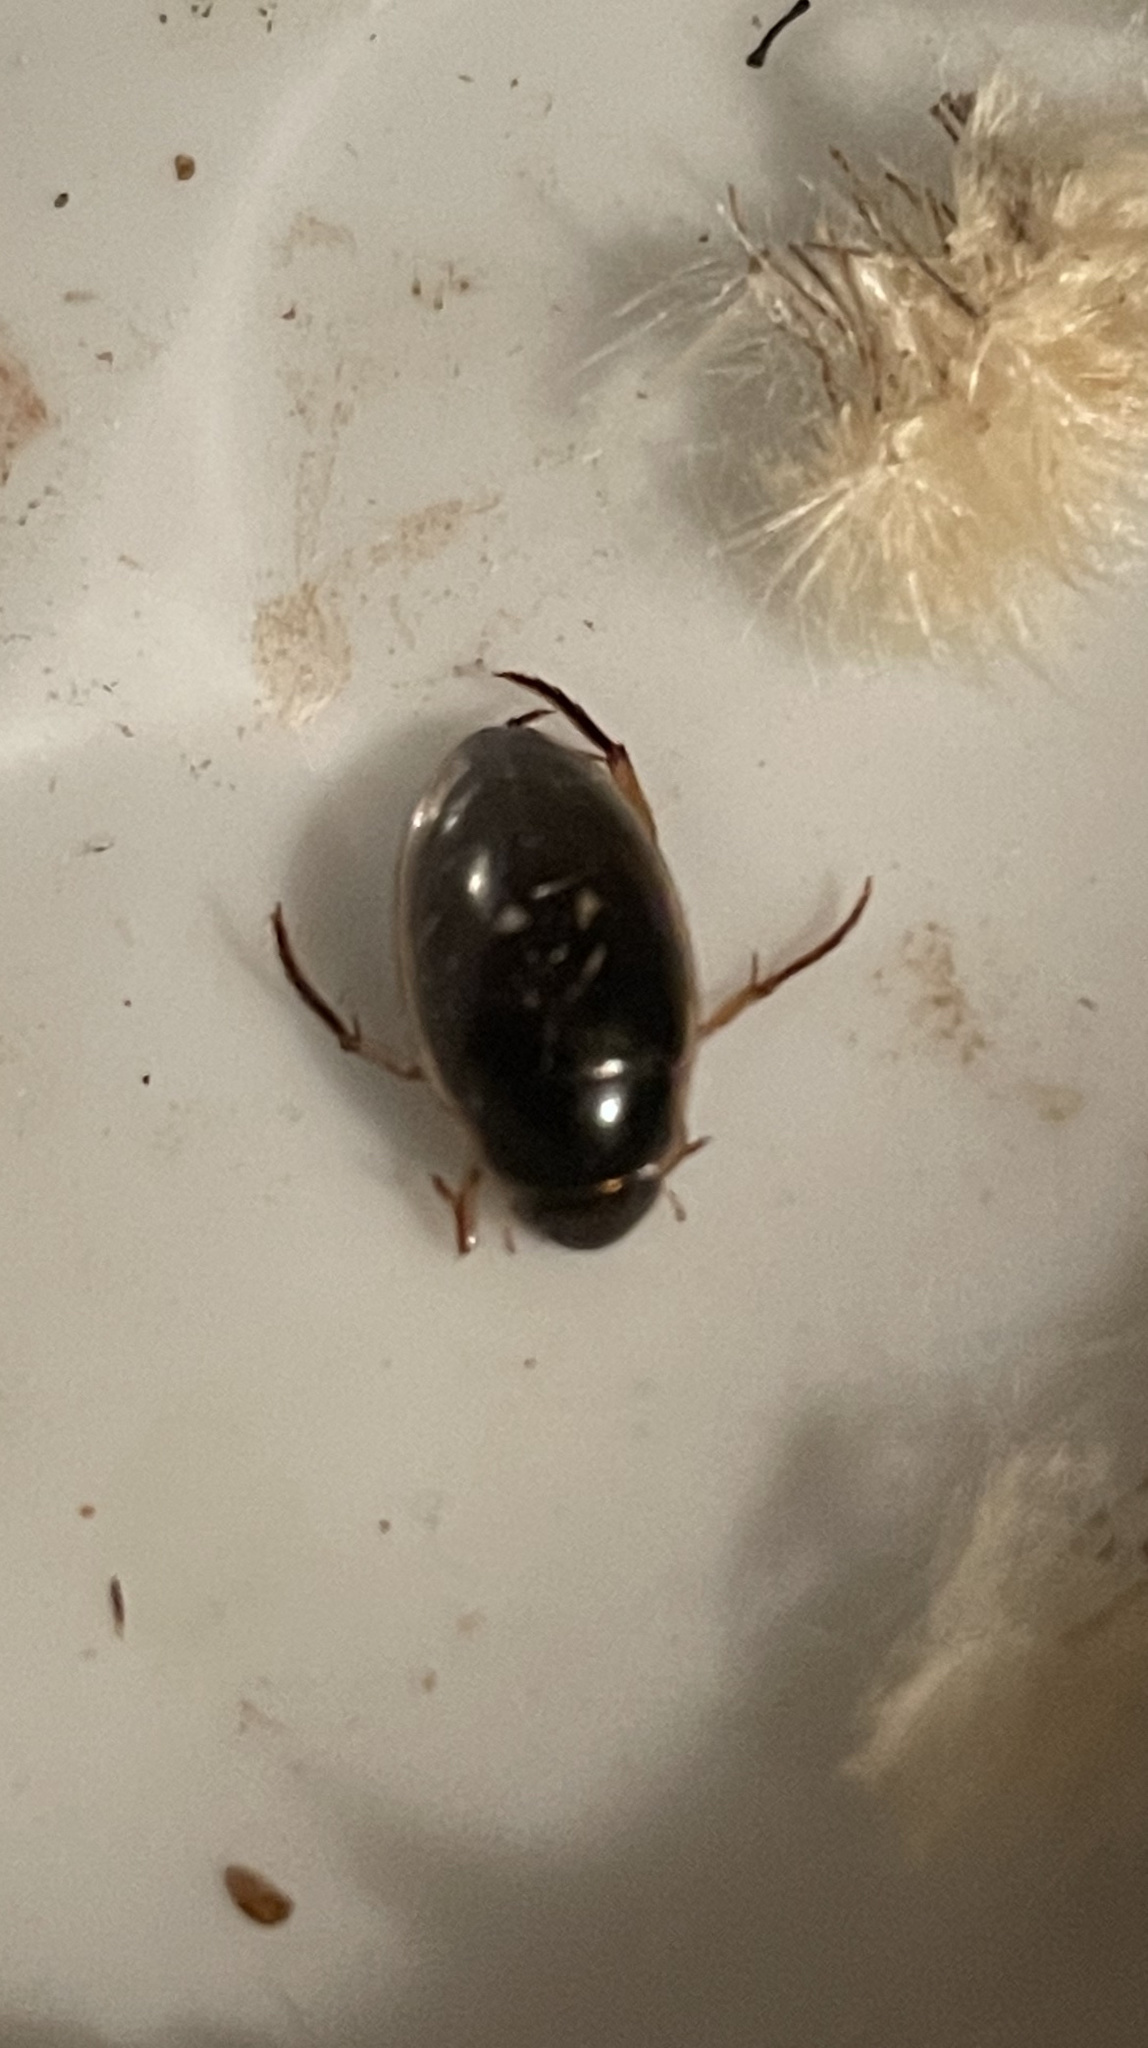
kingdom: Animalia
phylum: Arthropoda
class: Insecta
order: Coleoptera
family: Hydrophilidae
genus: Tropisternus
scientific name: Tropisternus lateralis
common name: Lateral-banded water scavenger beetle
